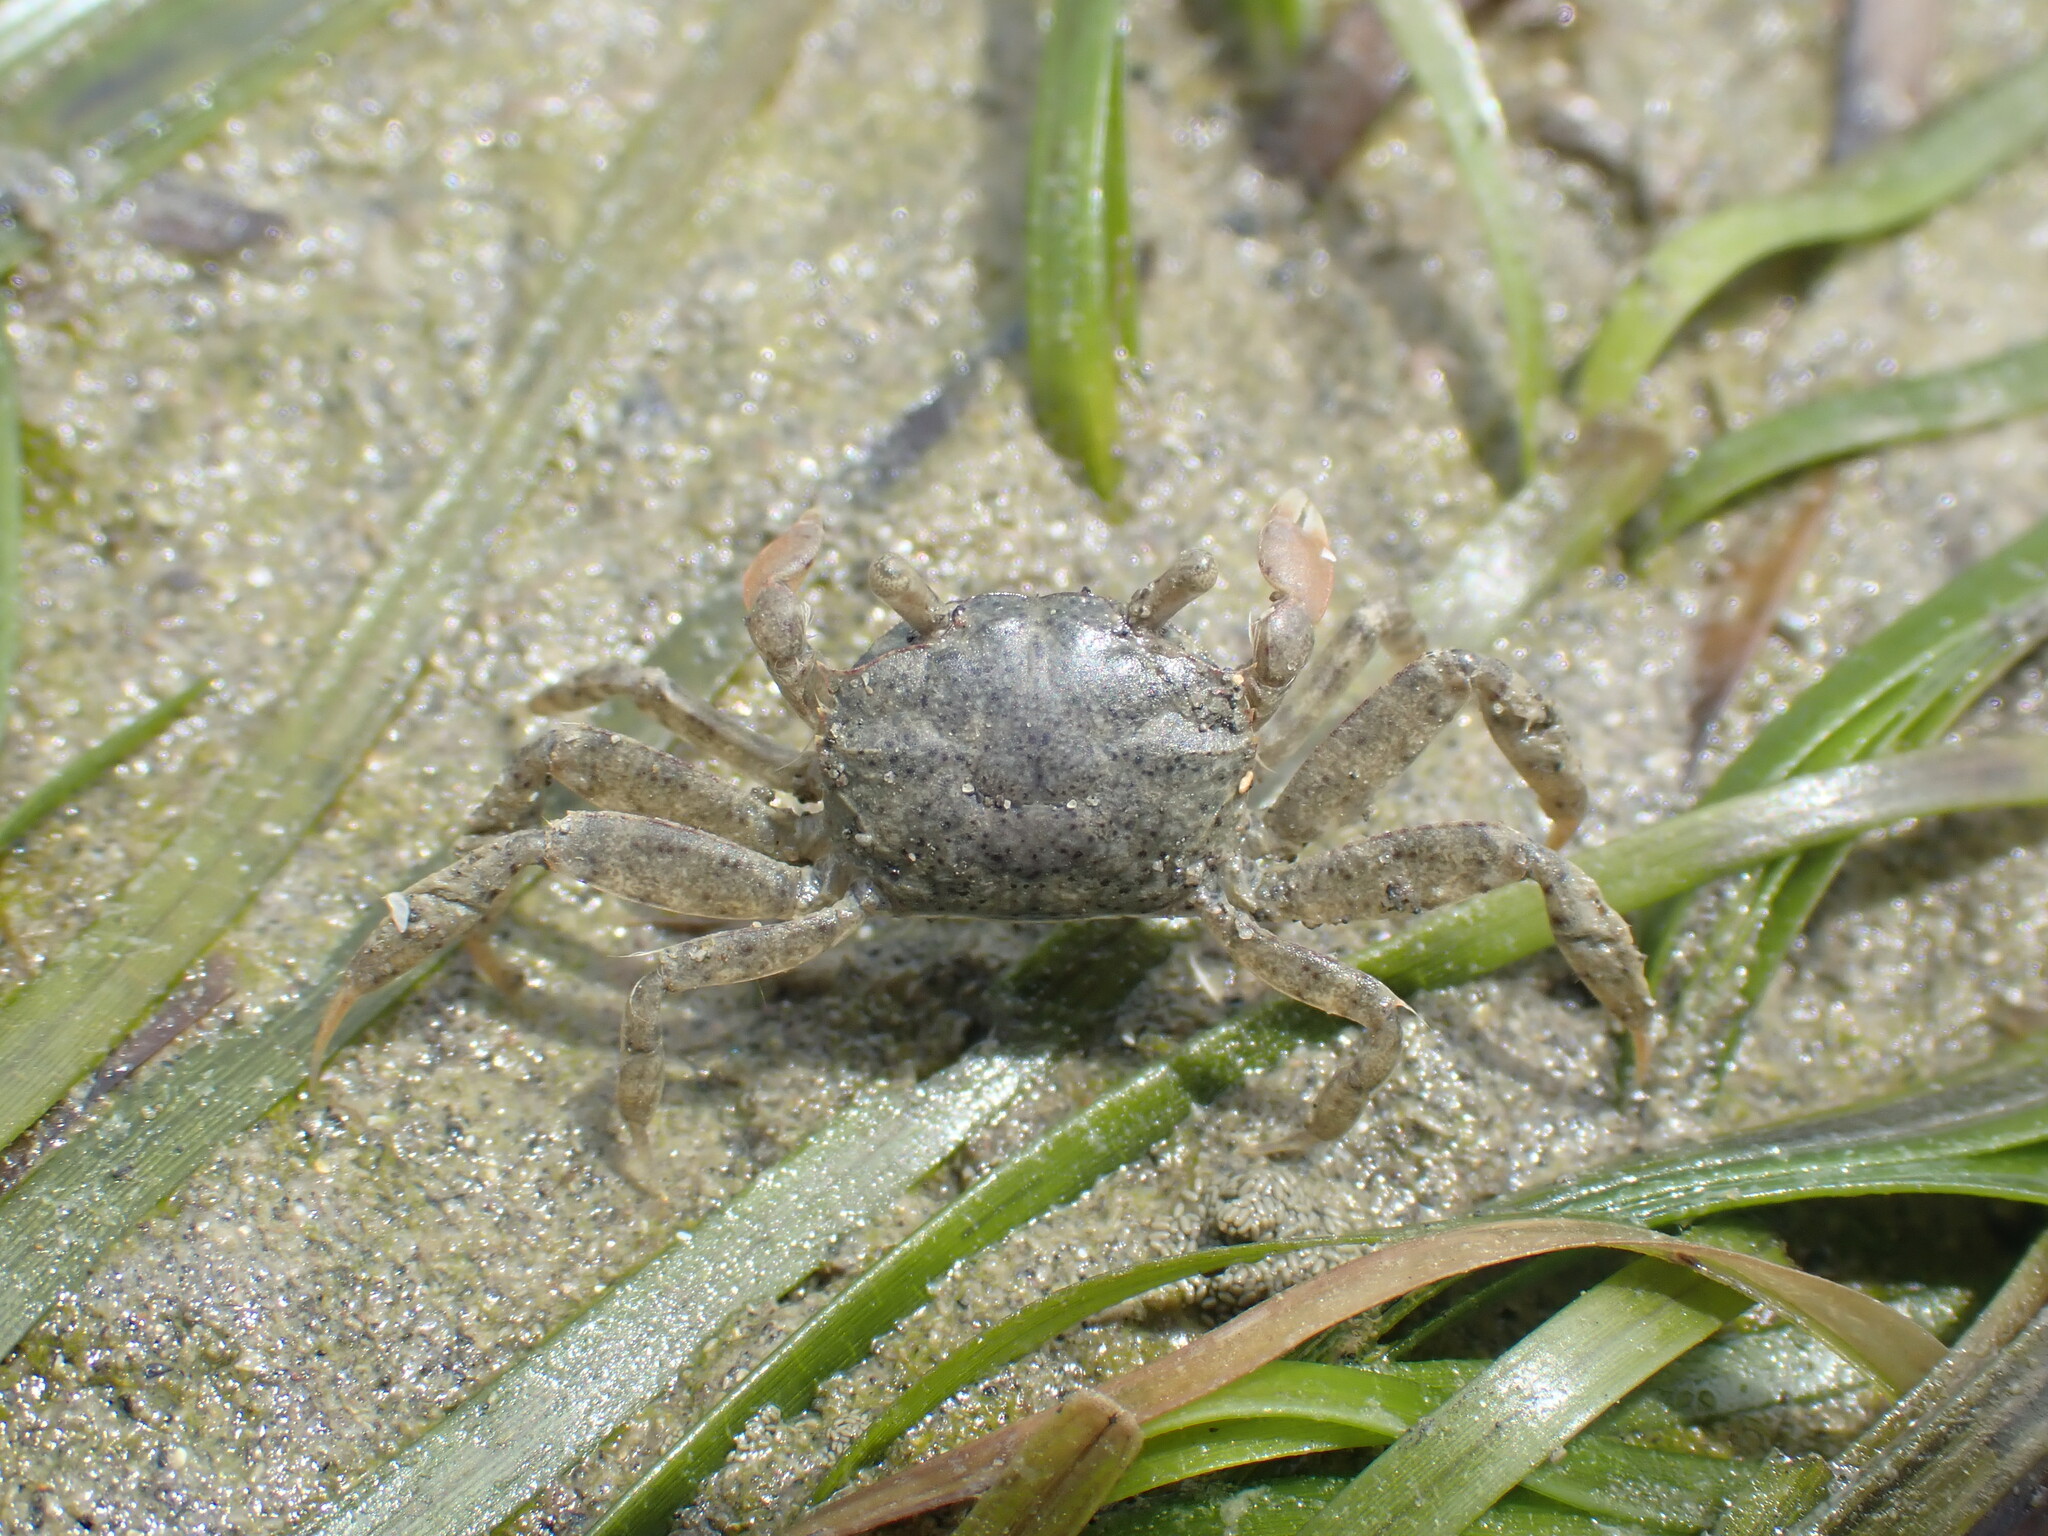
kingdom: Animalia
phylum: Arthropoda
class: Malacostraca
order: Decapoda
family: Varunidae
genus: Austrohelice
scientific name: Austrohelice crassa
